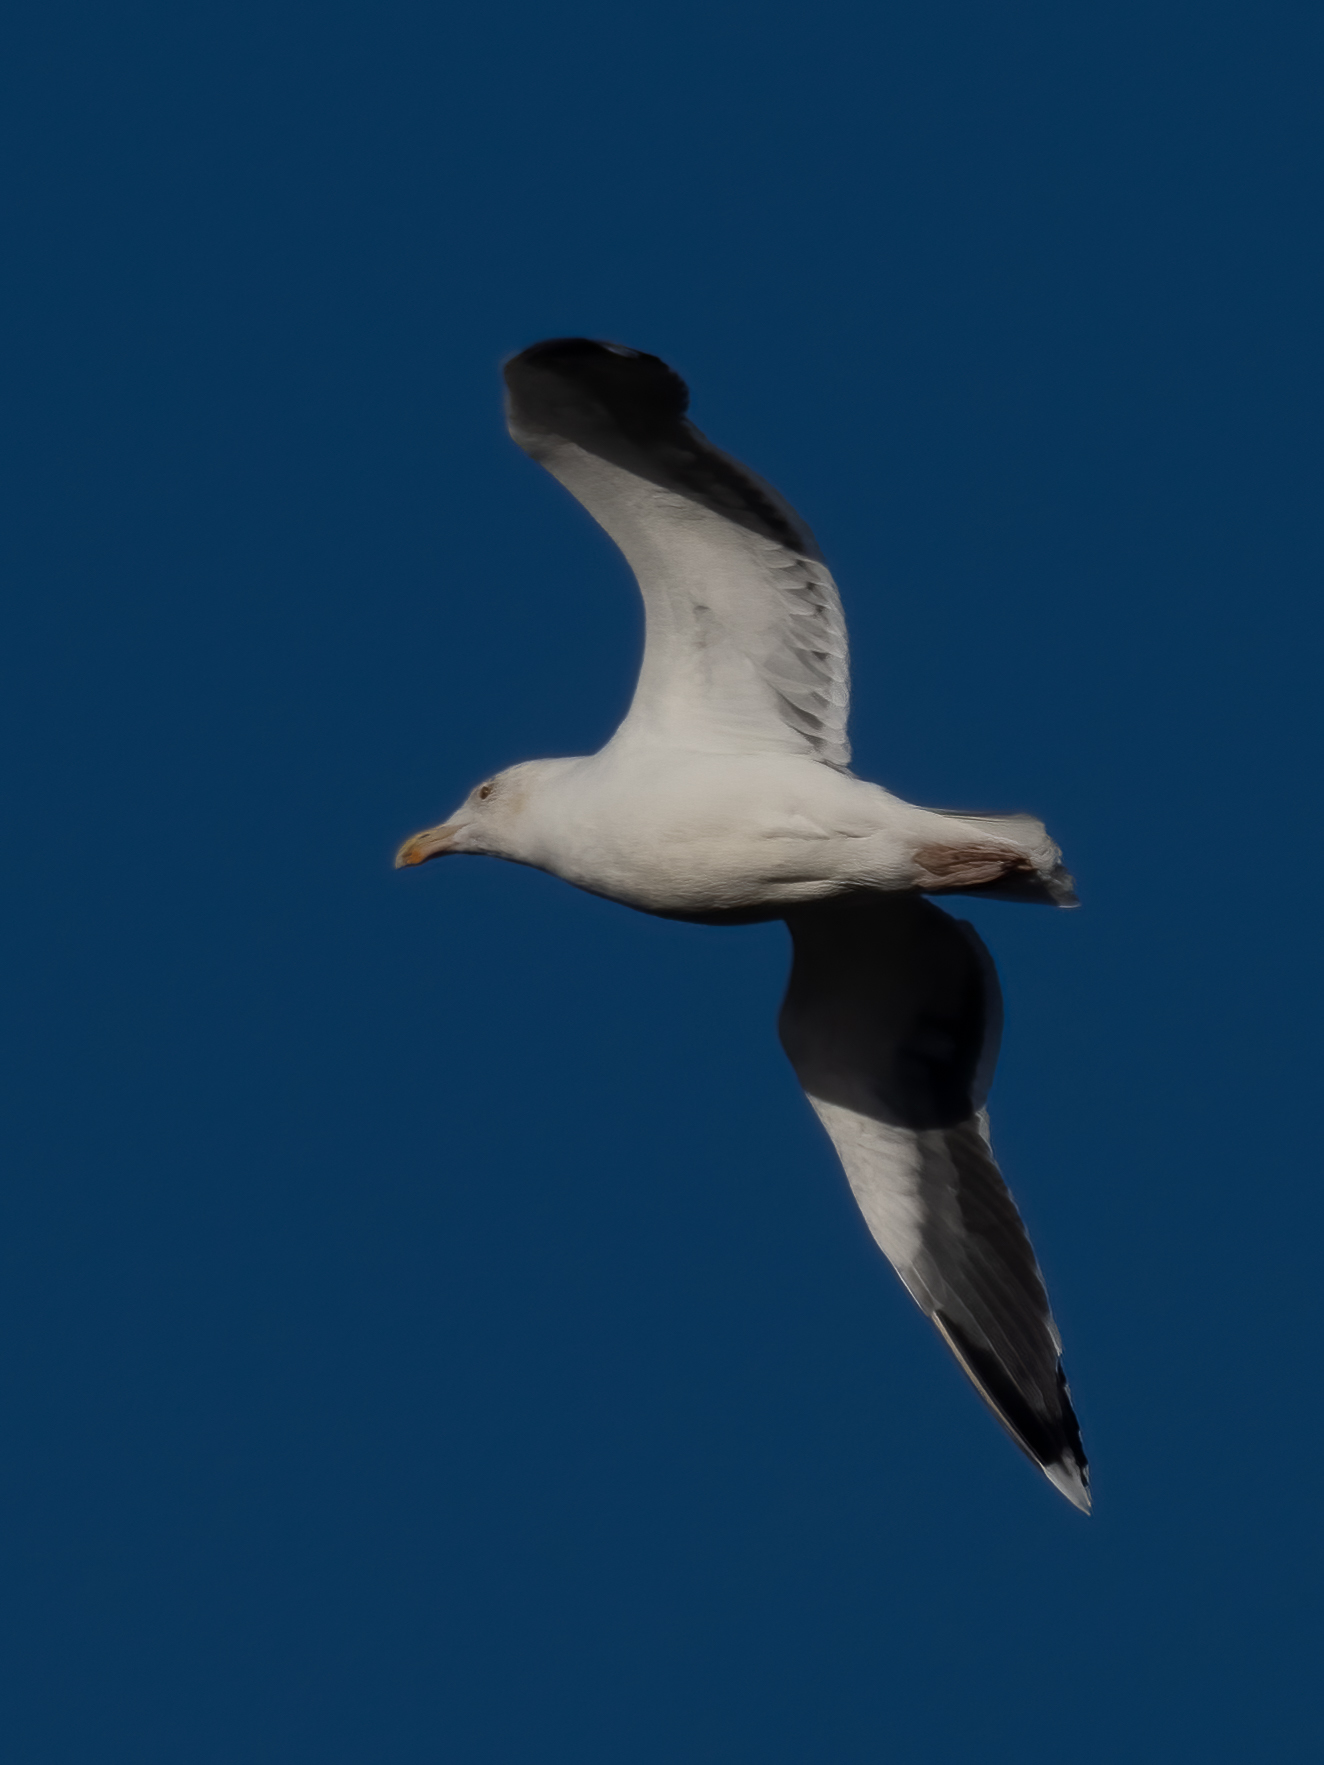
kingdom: Animalia
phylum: Chordata
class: Aves
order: Charadriiformes
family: Laridae
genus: Larus
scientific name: Larus marinus
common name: Great black-backed gull
